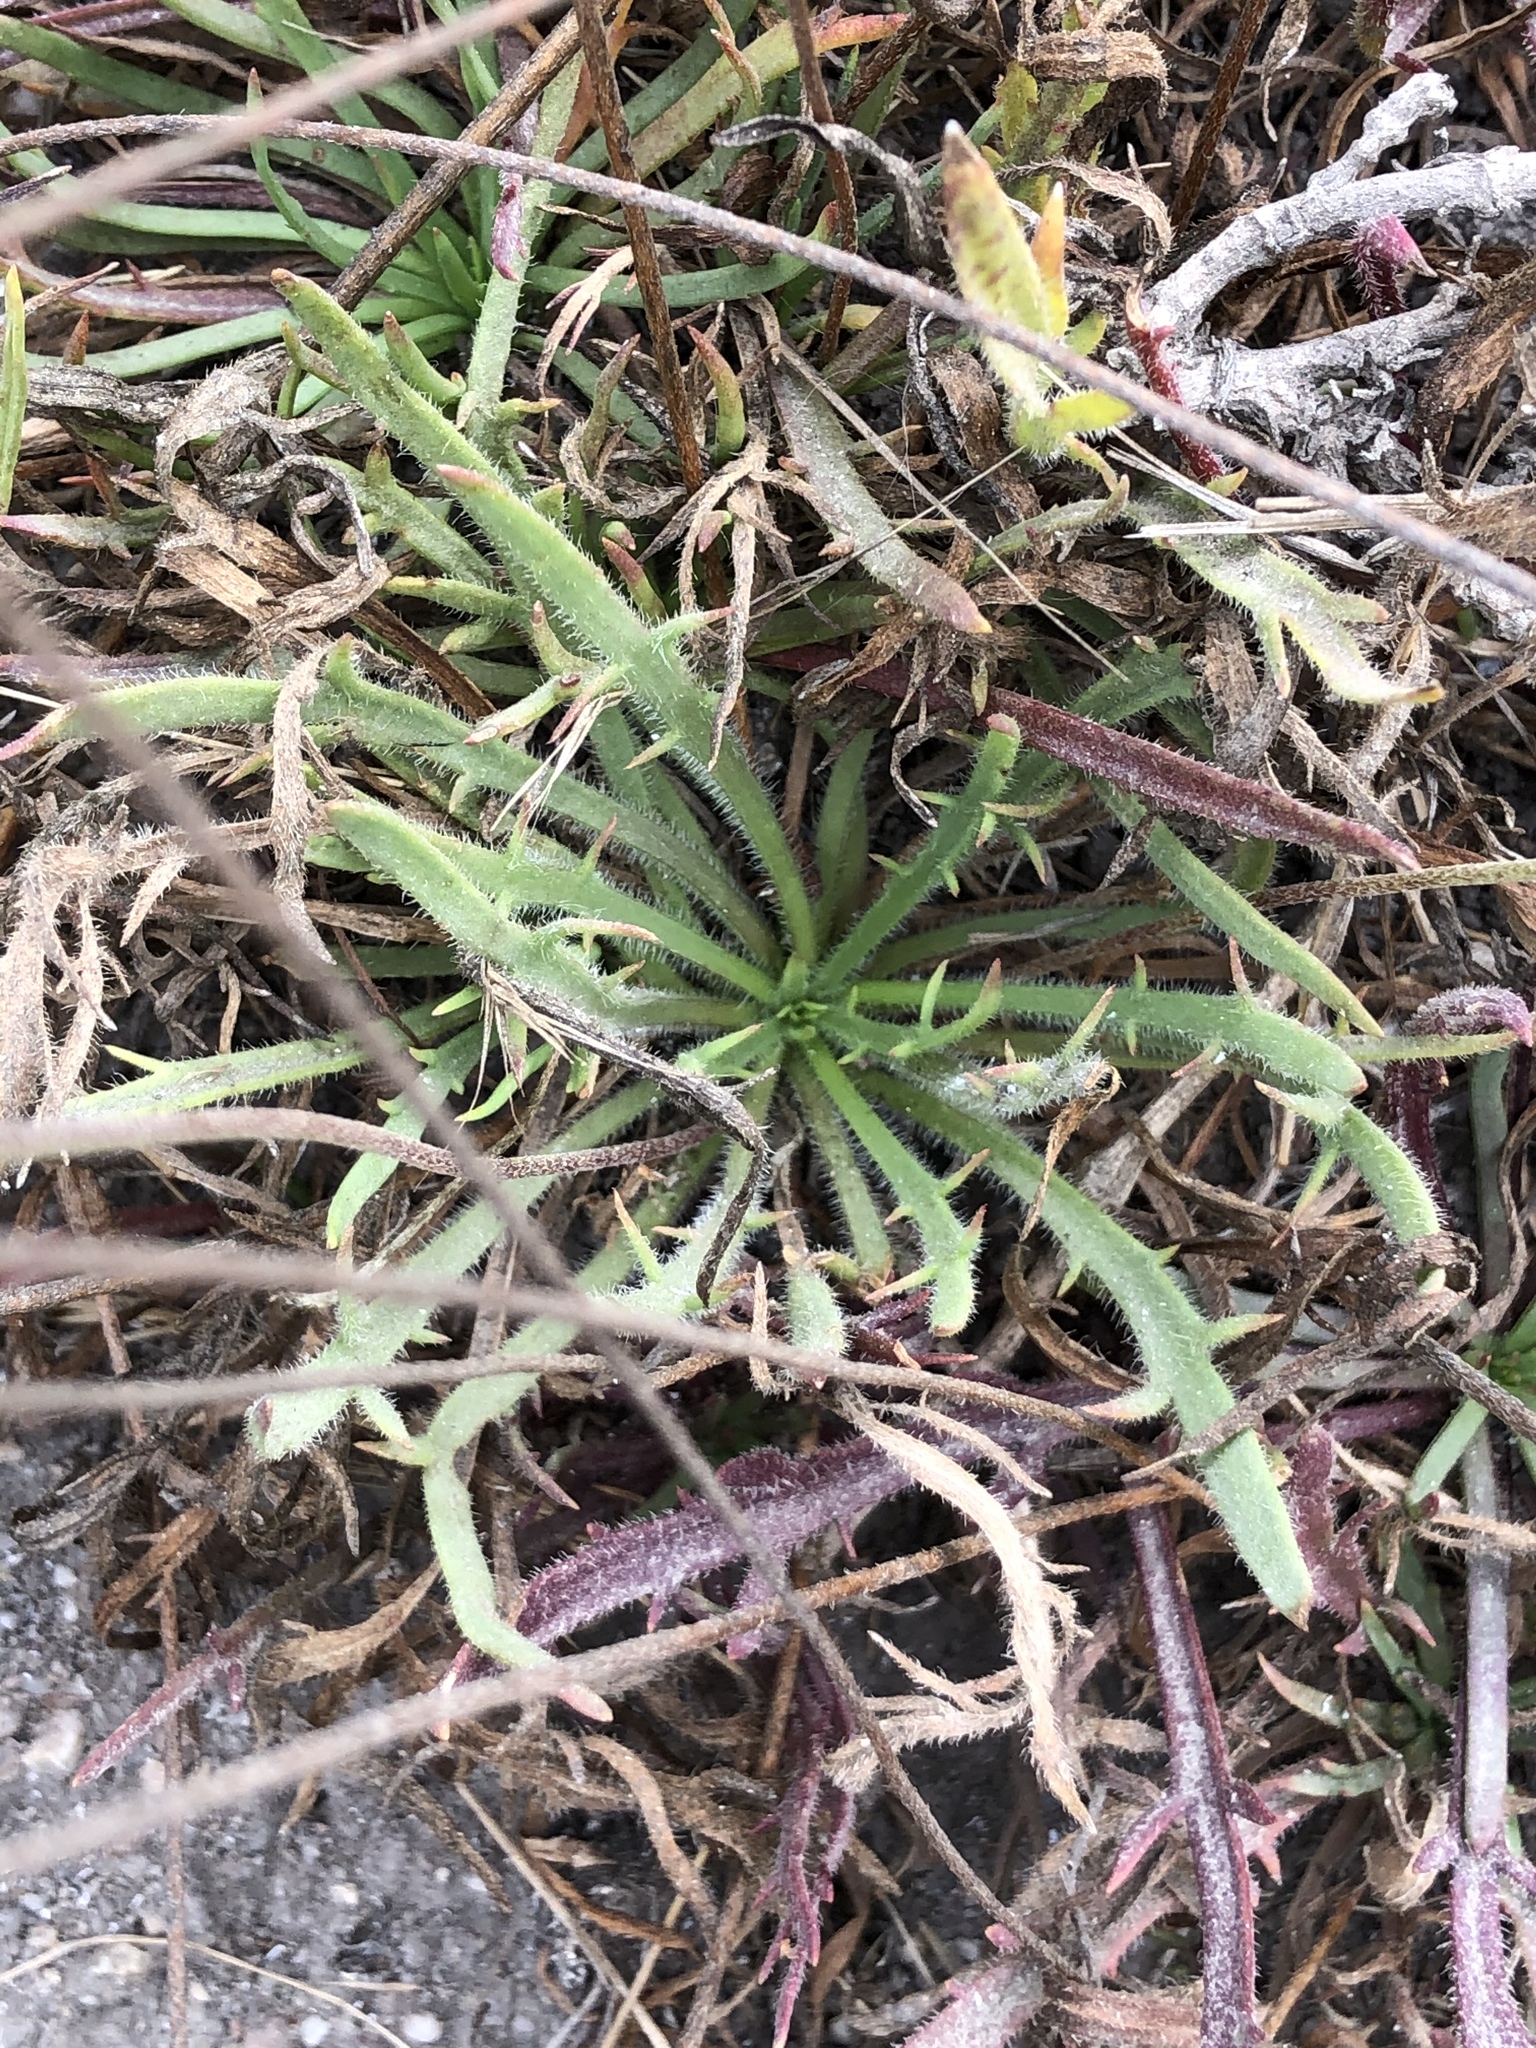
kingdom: Plantae
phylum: Tracheophyta
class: Magnoliopsida
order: Lamiales
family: Plantaginaceae
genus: Plantago
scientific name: Plantago coronopus
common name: Buck's-horn plantain
